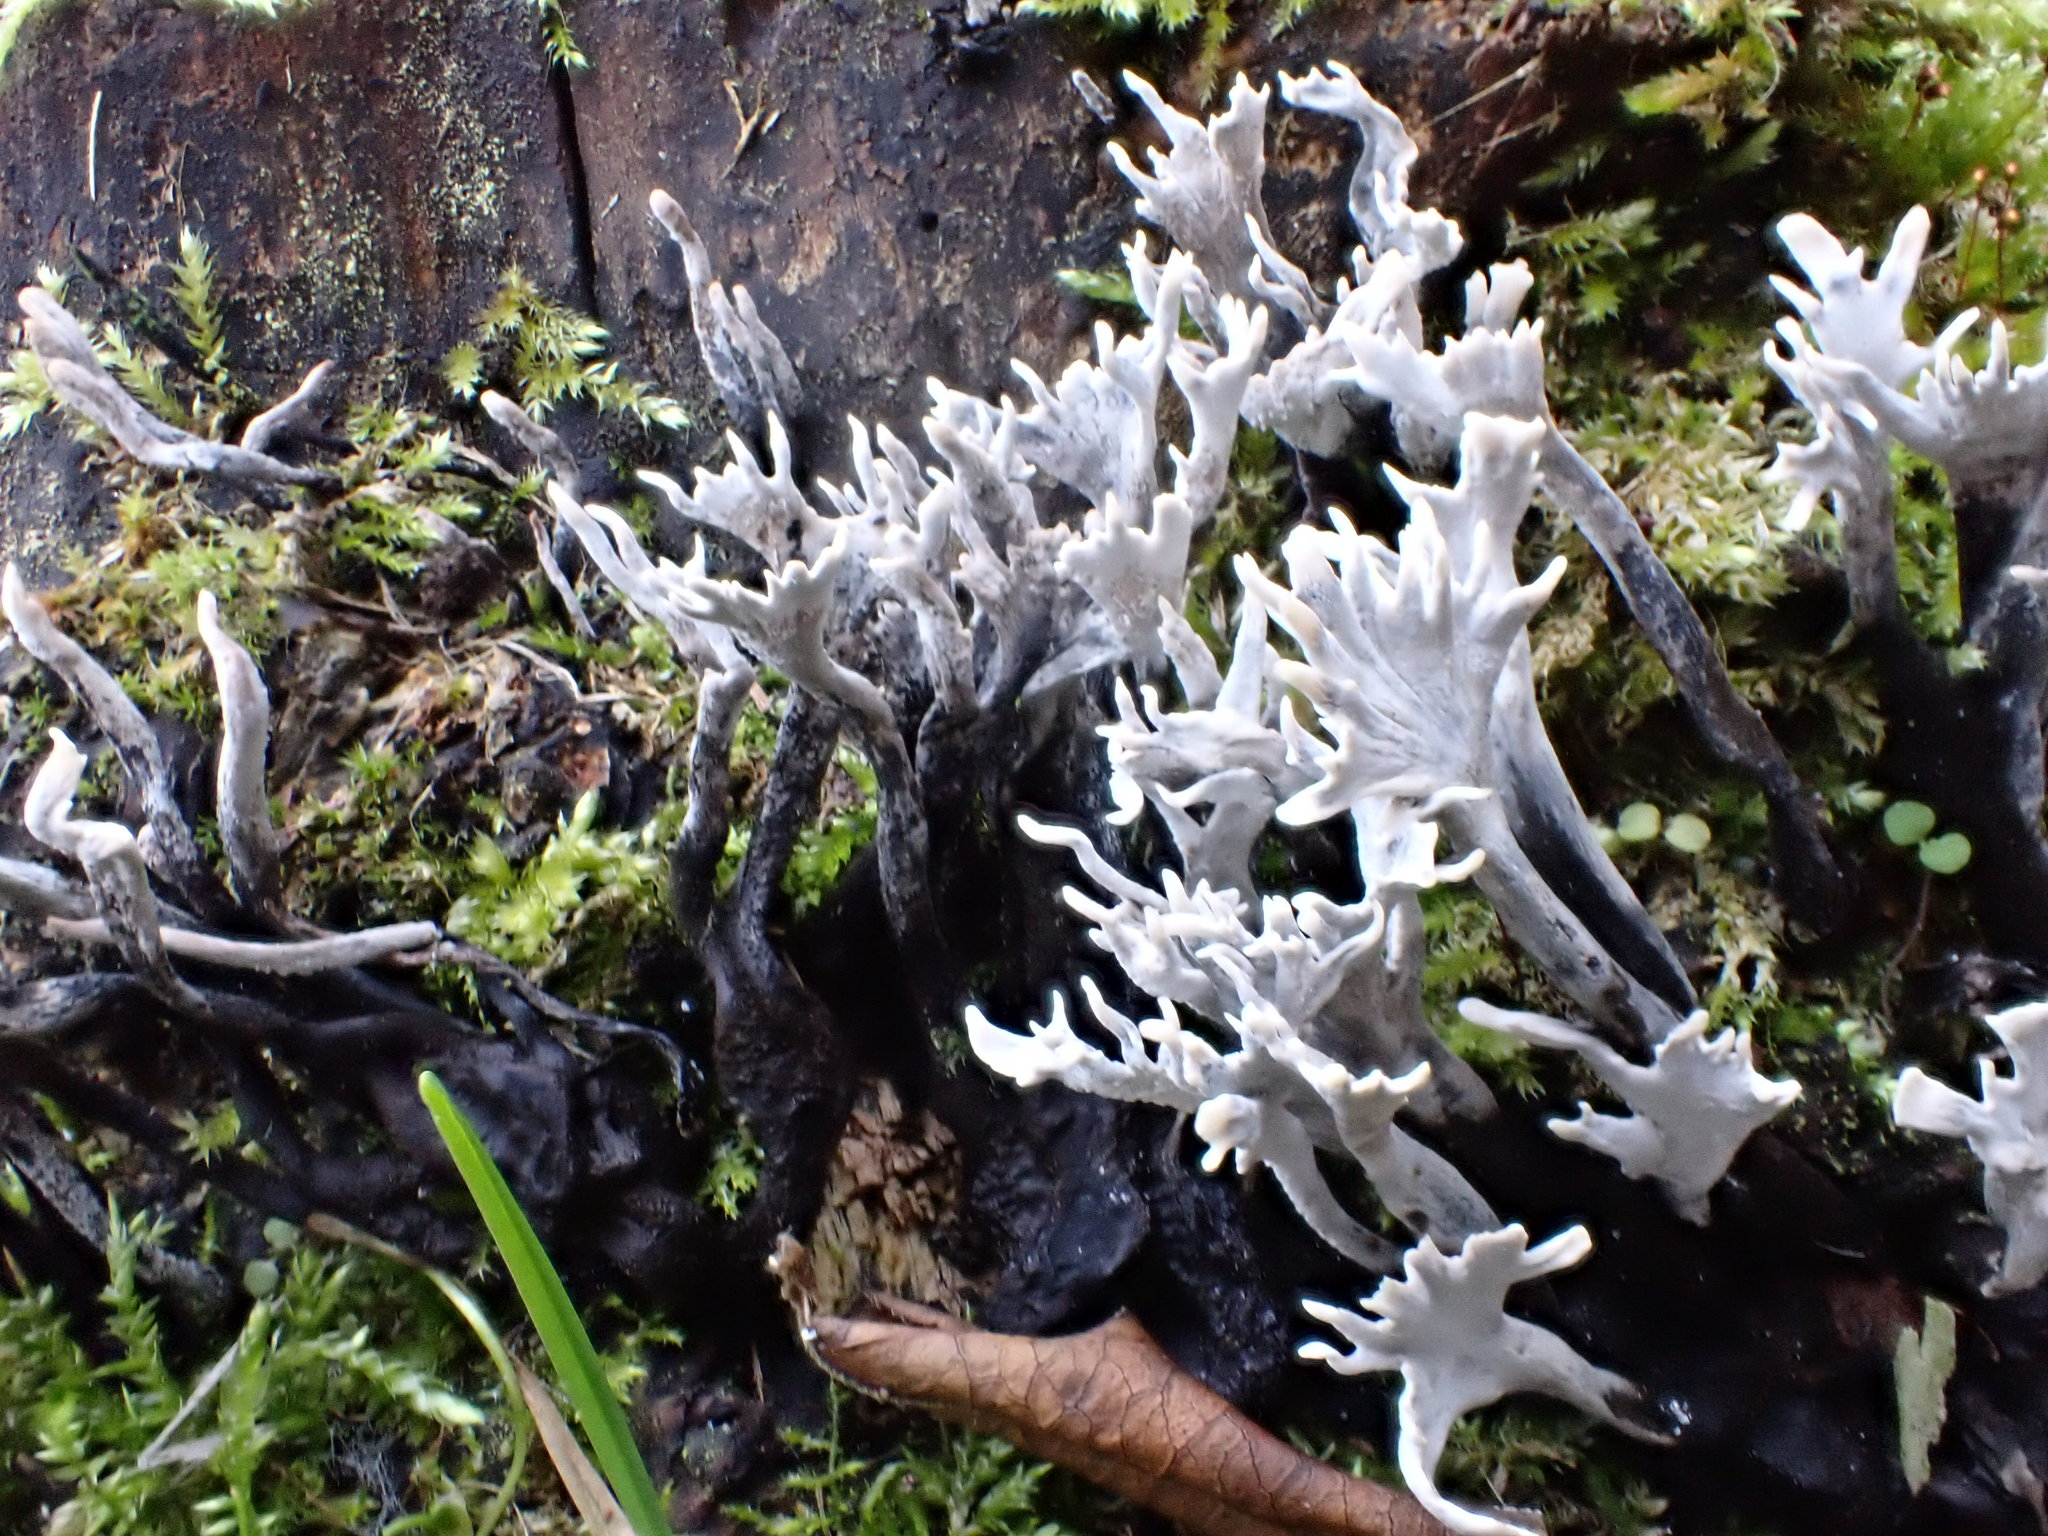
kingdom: Fungi
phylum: Ascomycota
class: Sordariomycetes
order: Xylariales
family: Xylariaceae
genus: Xylaria
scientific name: Xylaria hypoxylon
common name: Candle-snuff fungus
